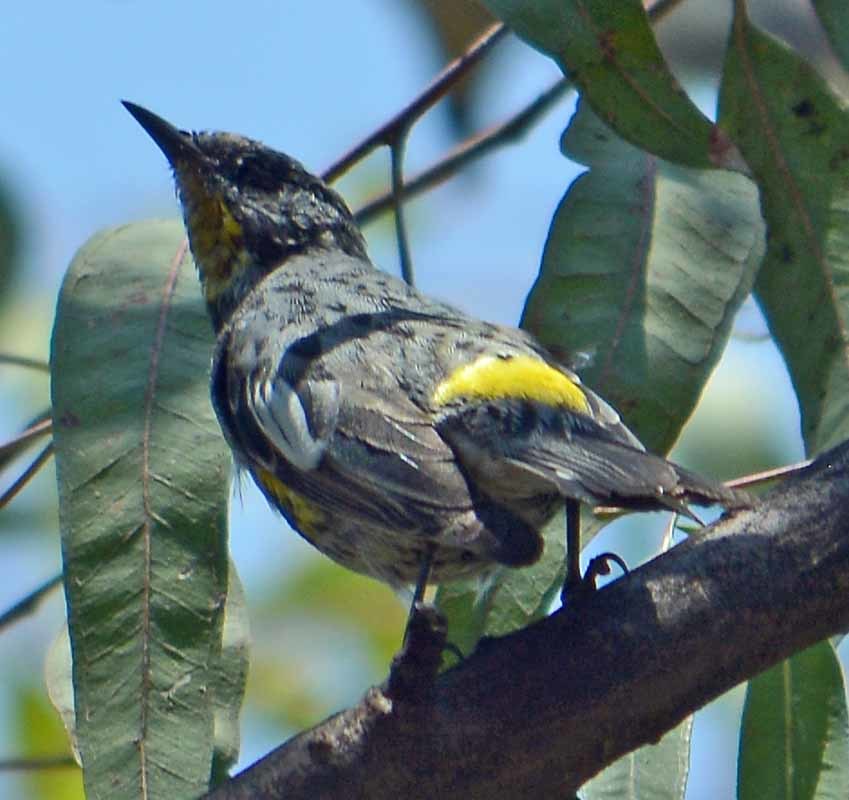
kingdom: Animalia
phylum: Chordata
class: Aves
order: Passeriformes
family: Parulidae
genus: Setophaga
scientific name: Setophaga auduboni
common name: Audubon's warbler
